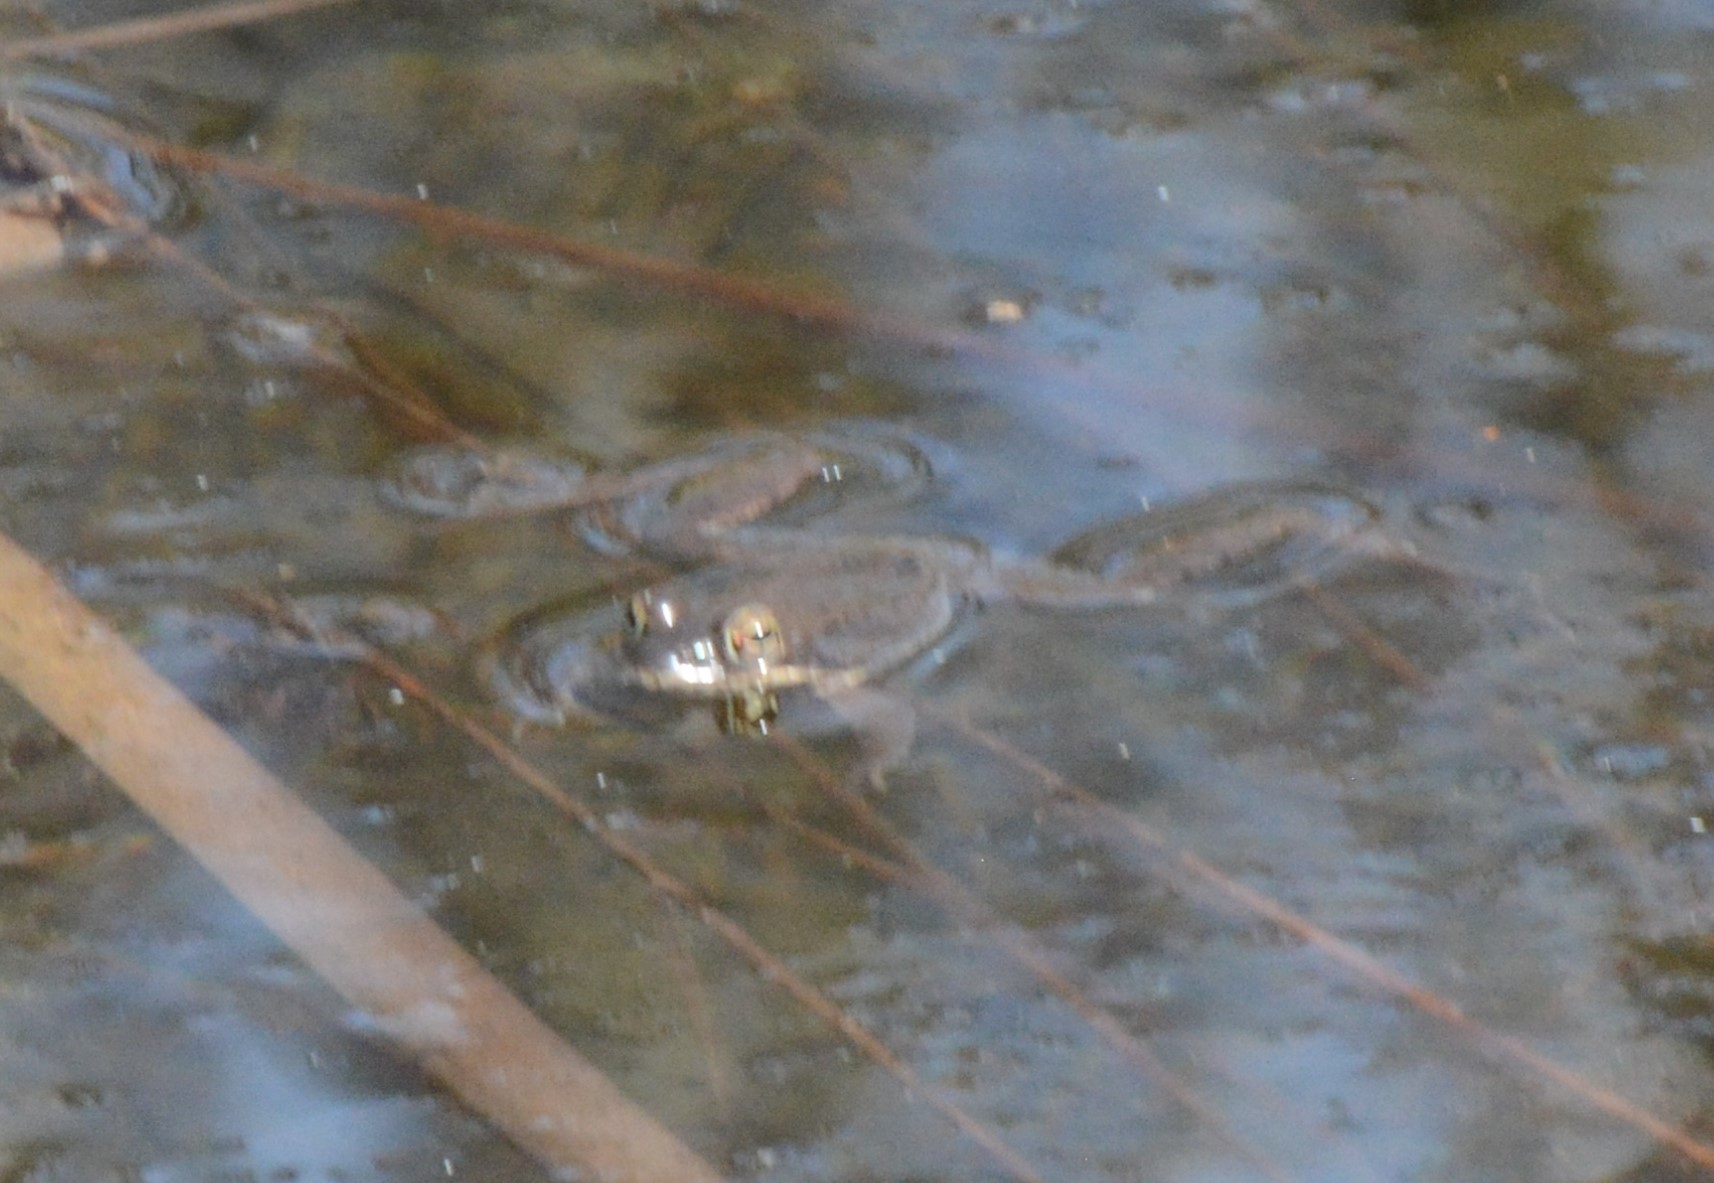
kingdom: Animalia
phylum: Chordata
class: Amphibia
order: Anura
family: Ranidae
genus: Lithobates
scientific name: Lithobates sylvaticus
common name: Wood frog
